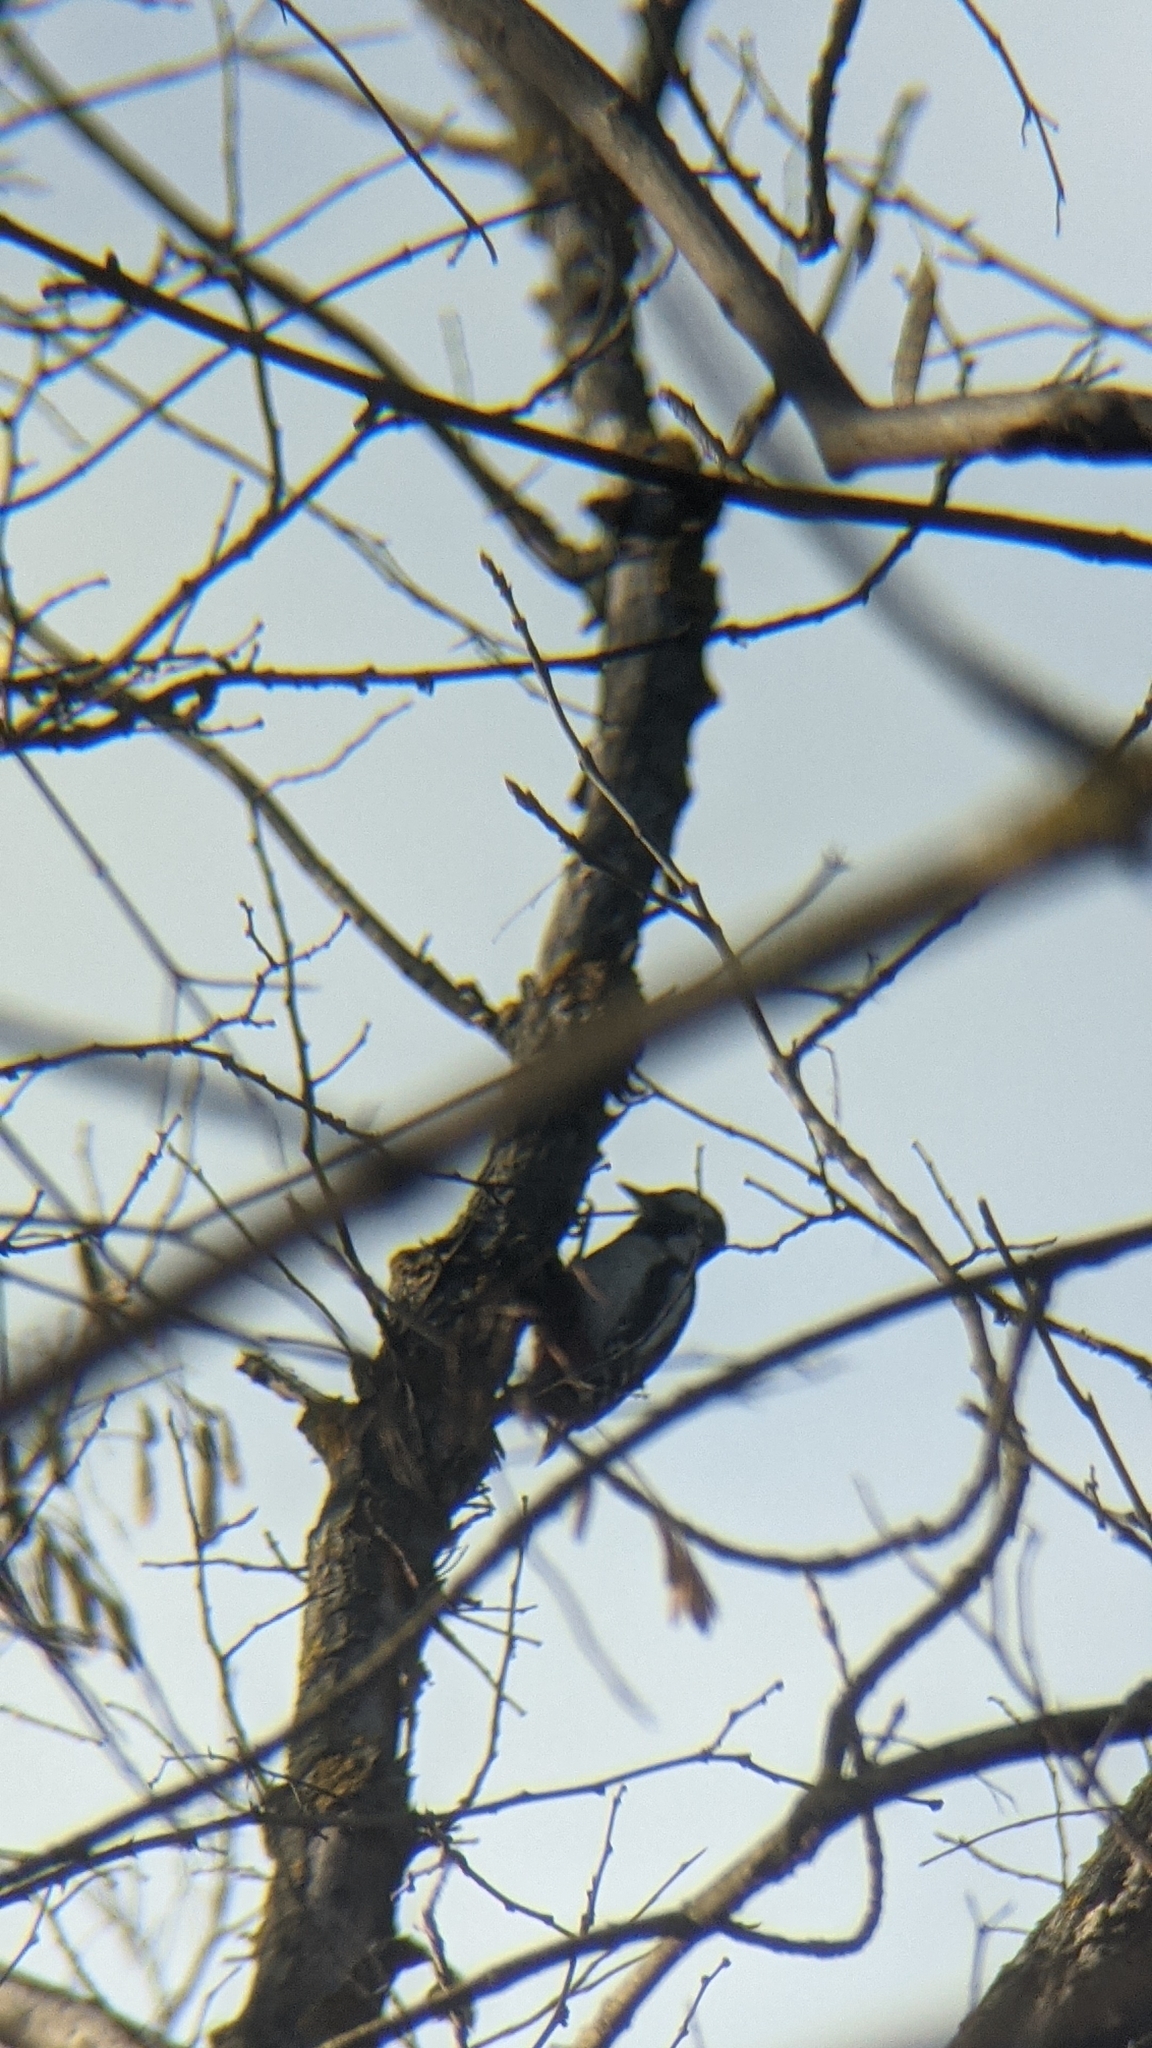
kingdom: Animalia
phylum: Chordata
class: Aves
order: Piciformes
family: Picidae
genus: Dendrocopos
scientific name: Dendrocopos major
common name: Great spotted woodpecker
